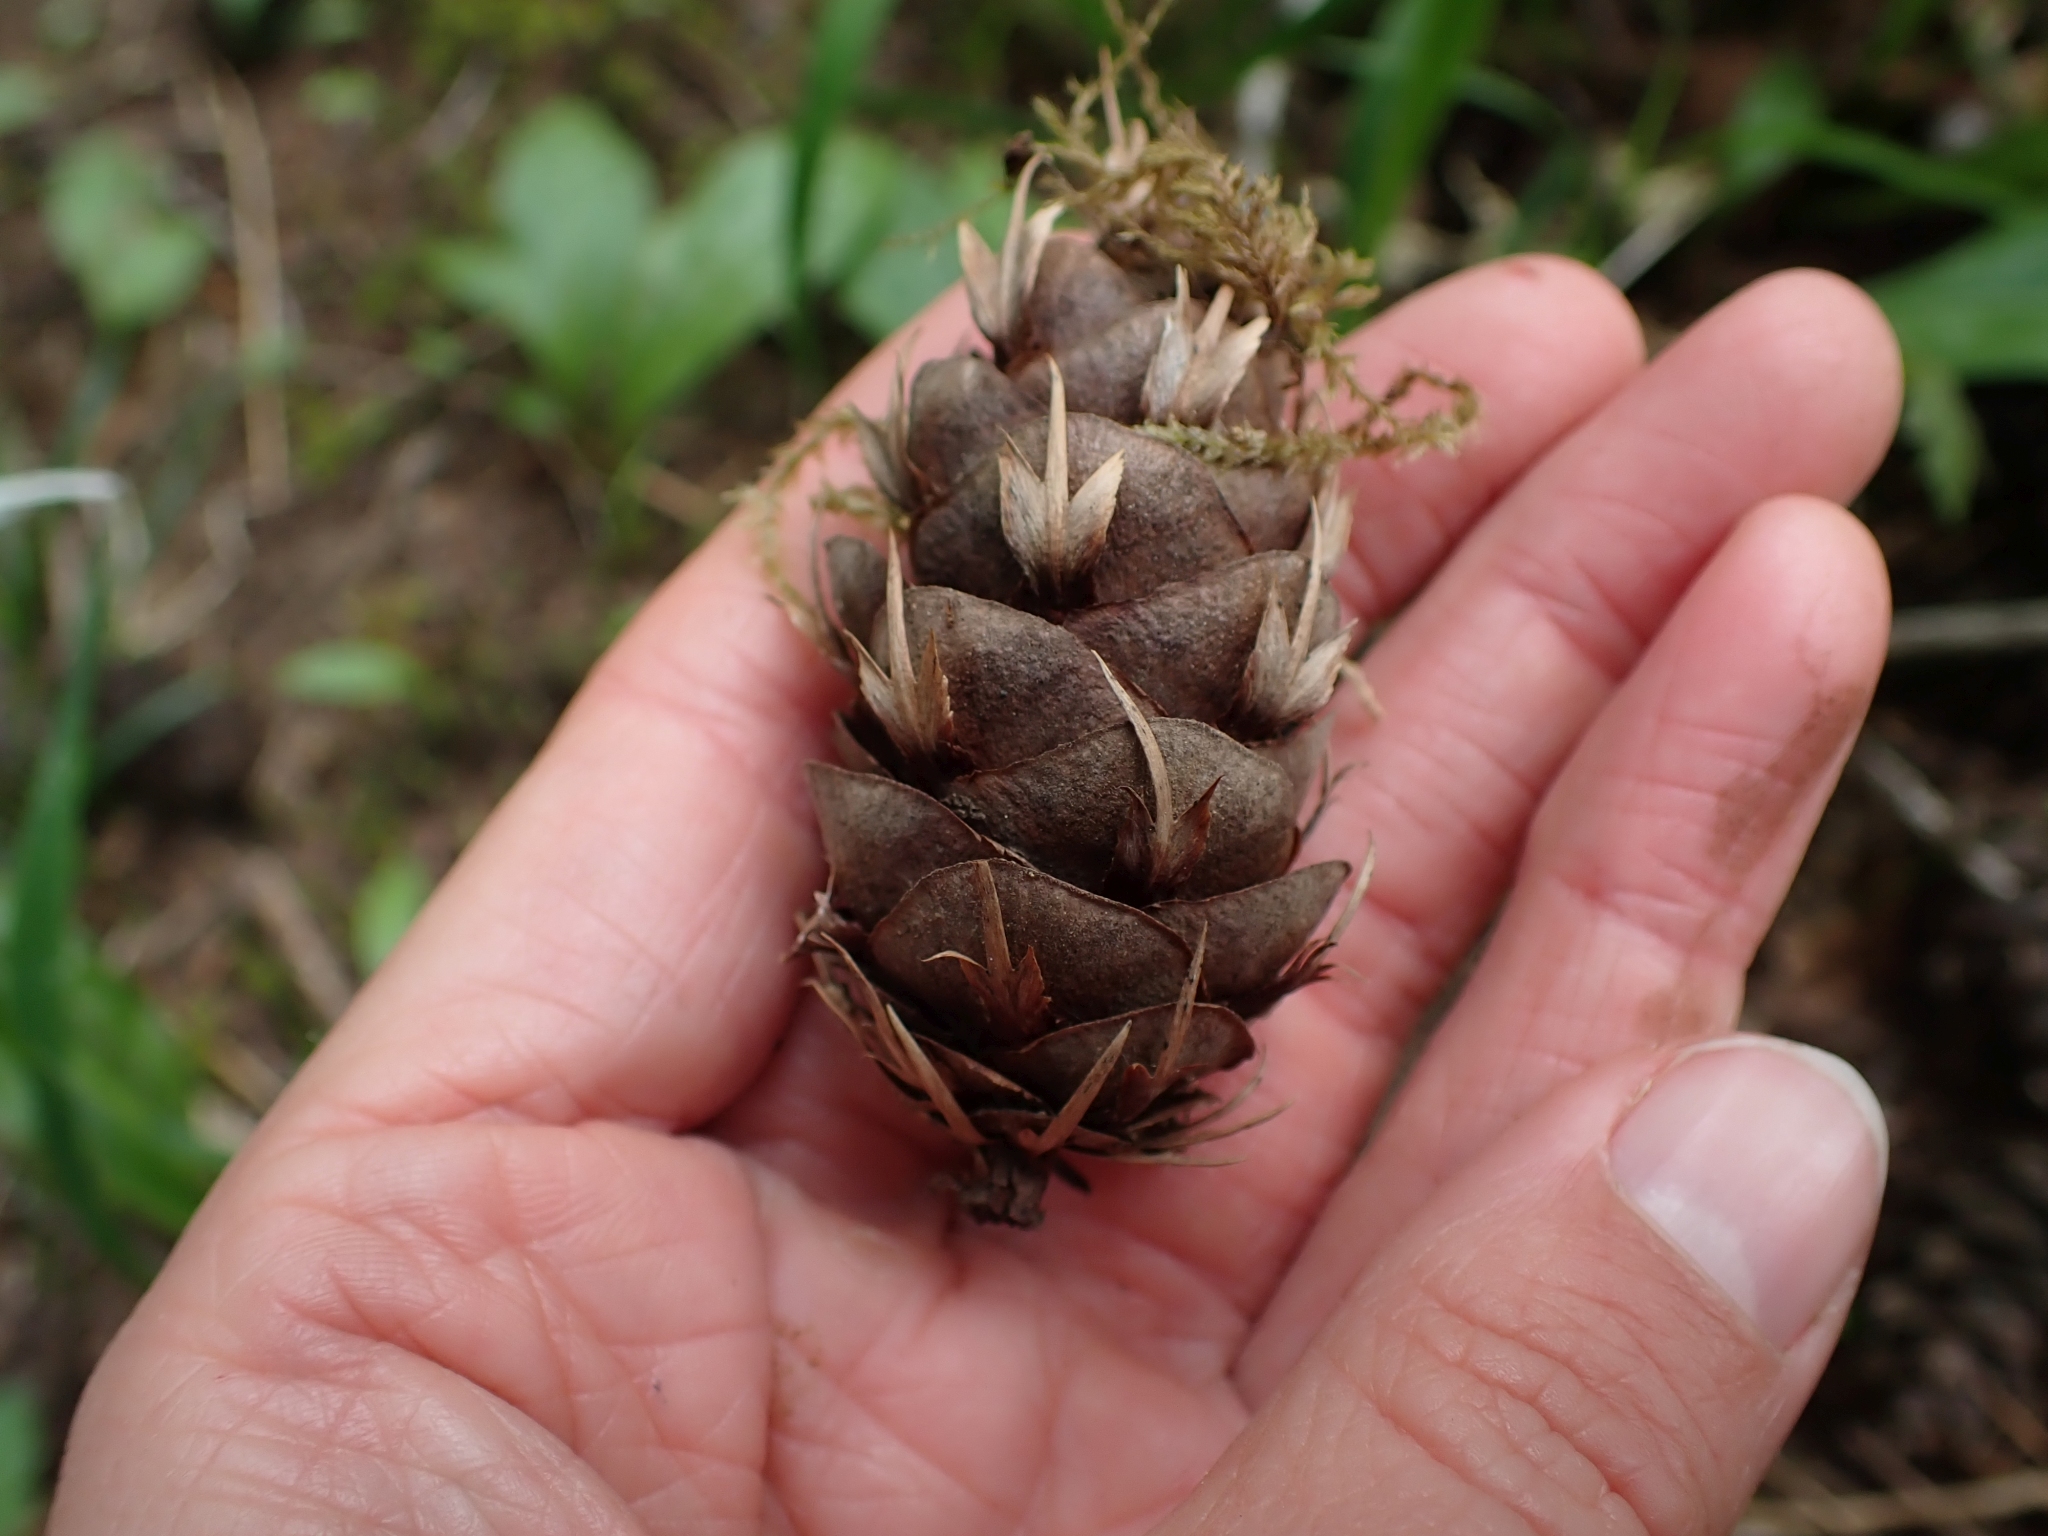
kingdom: Plantae
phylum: Tracheophyta
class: Pinopsida
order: Pinales
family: Pinaceae
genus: Pseudotsuga
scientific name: Pseudotsuga menziesii
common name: Douglas fir
